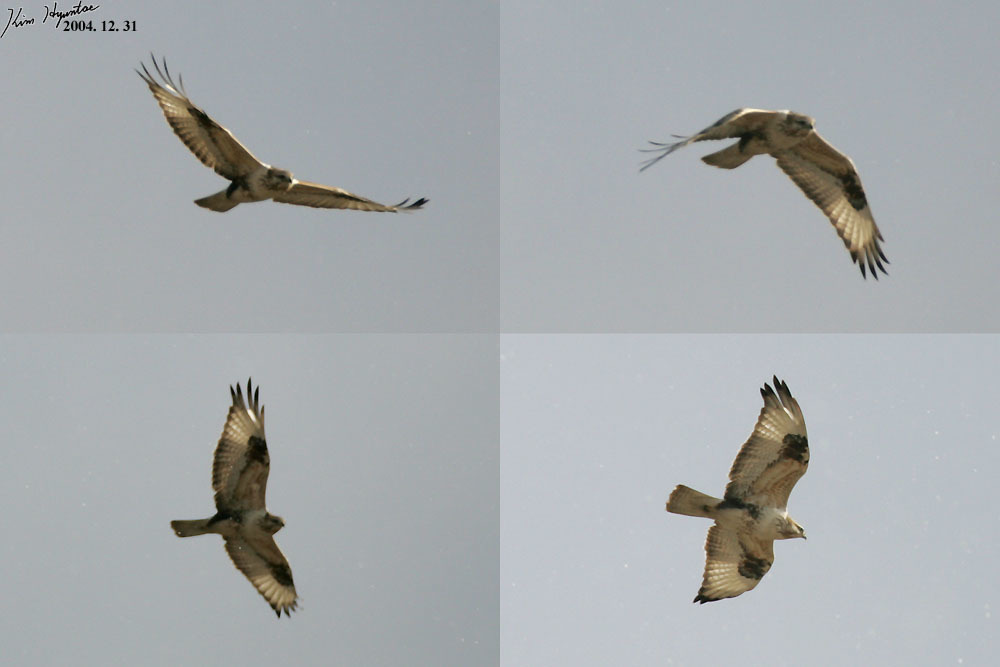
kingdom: Animalia
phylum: Chordata
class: Aves
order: Accipitriformes
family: Accipitridae
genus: Buteo
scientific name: Buteo hemilasius
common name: Upland buzzard
